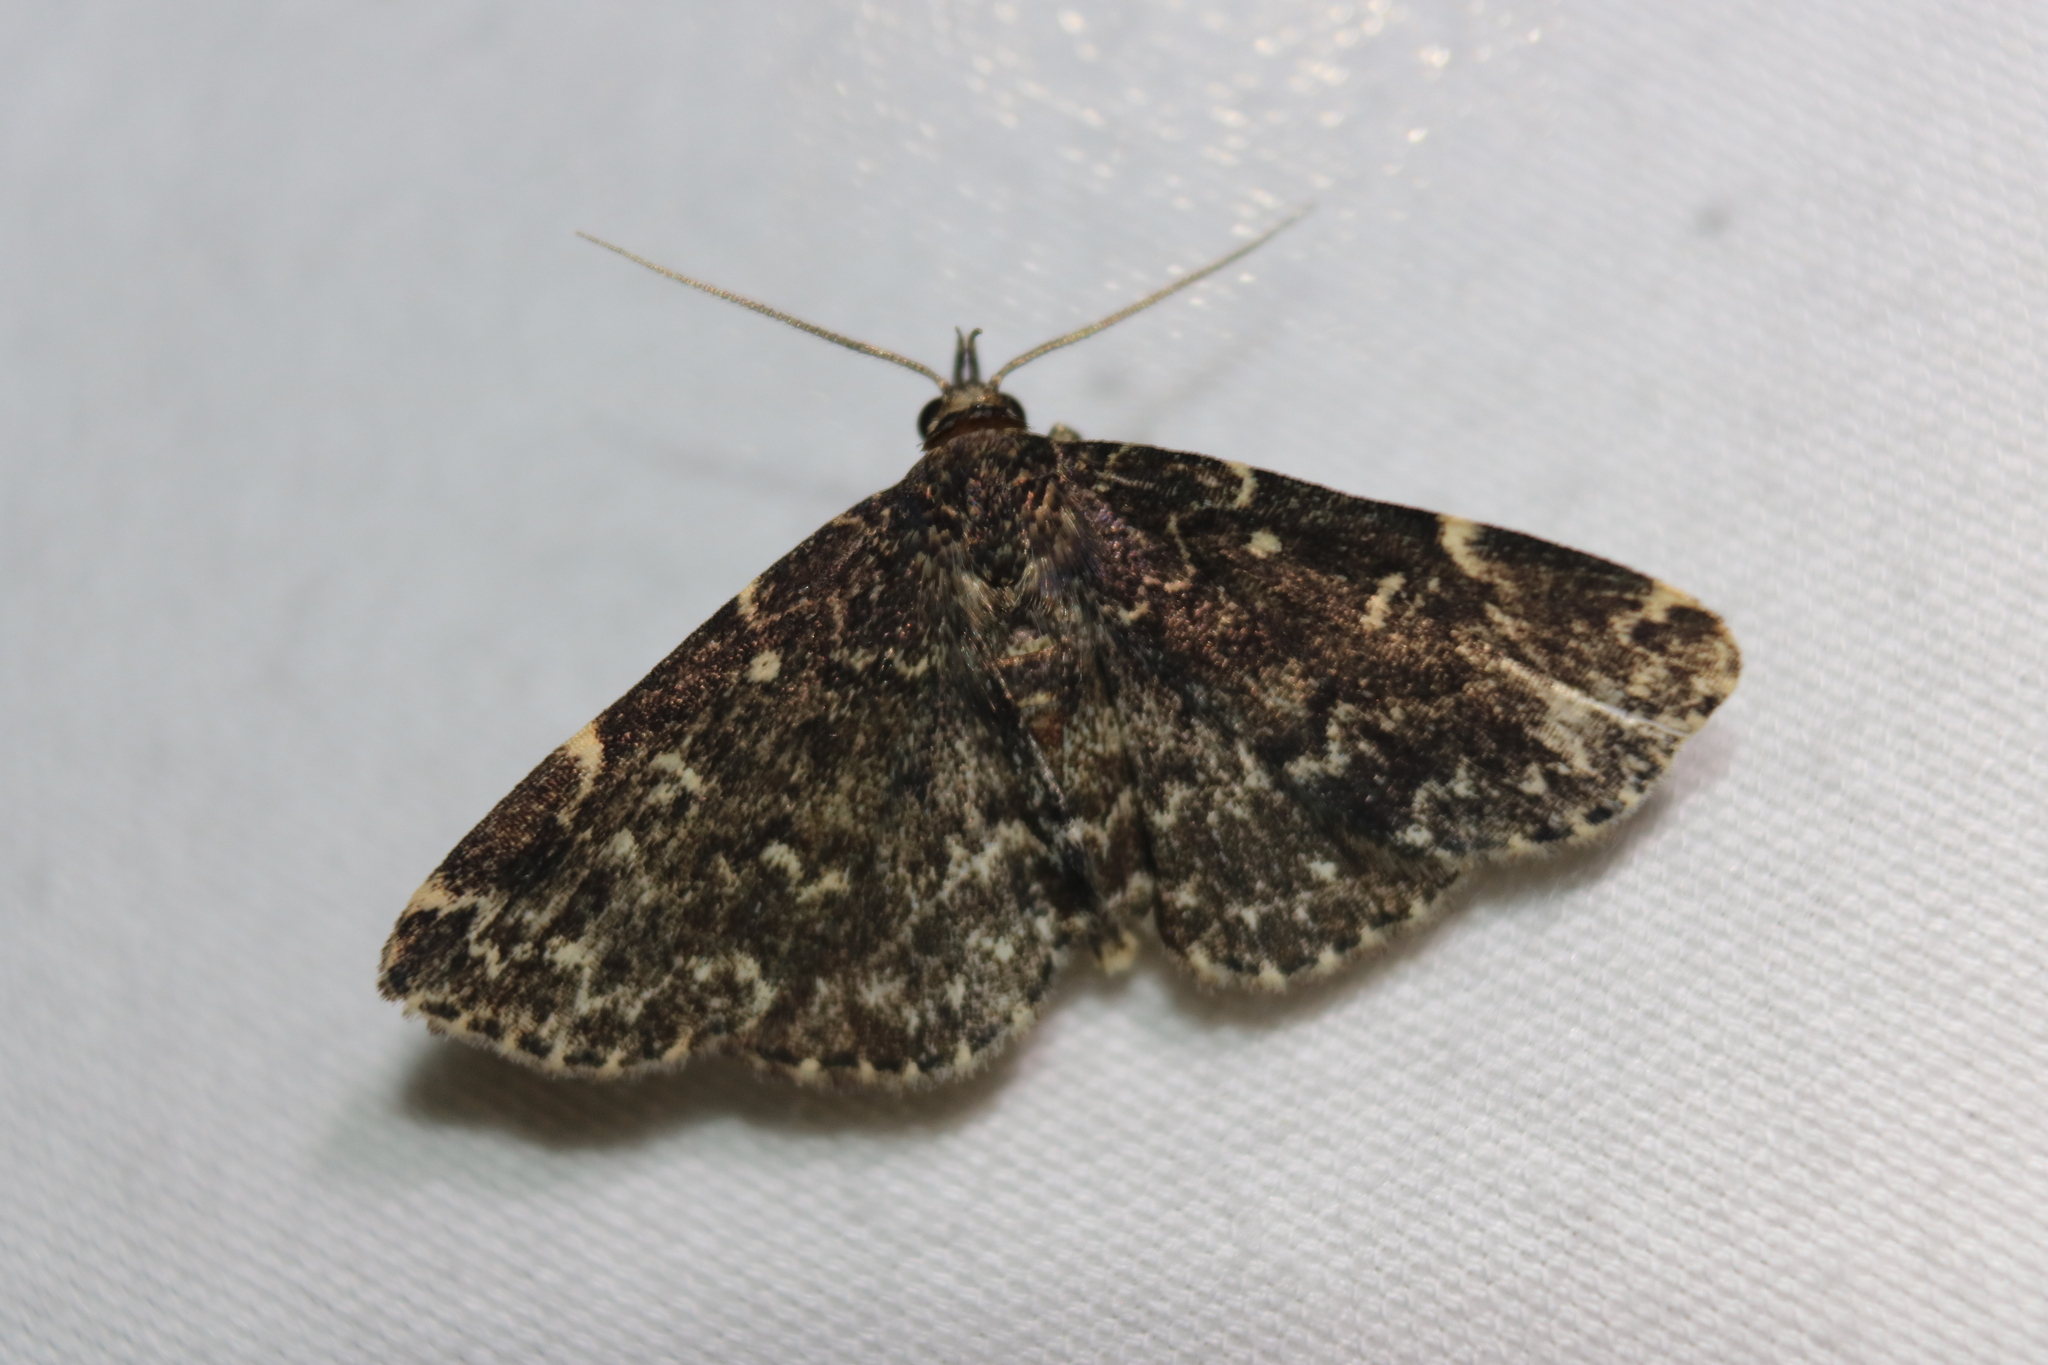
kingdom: Animalia
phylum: Arthropoda
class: Insecta
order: Lepidoptera
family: Erebidae
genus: Idia
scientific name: Idia scobialis
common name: Smoky idia moth
